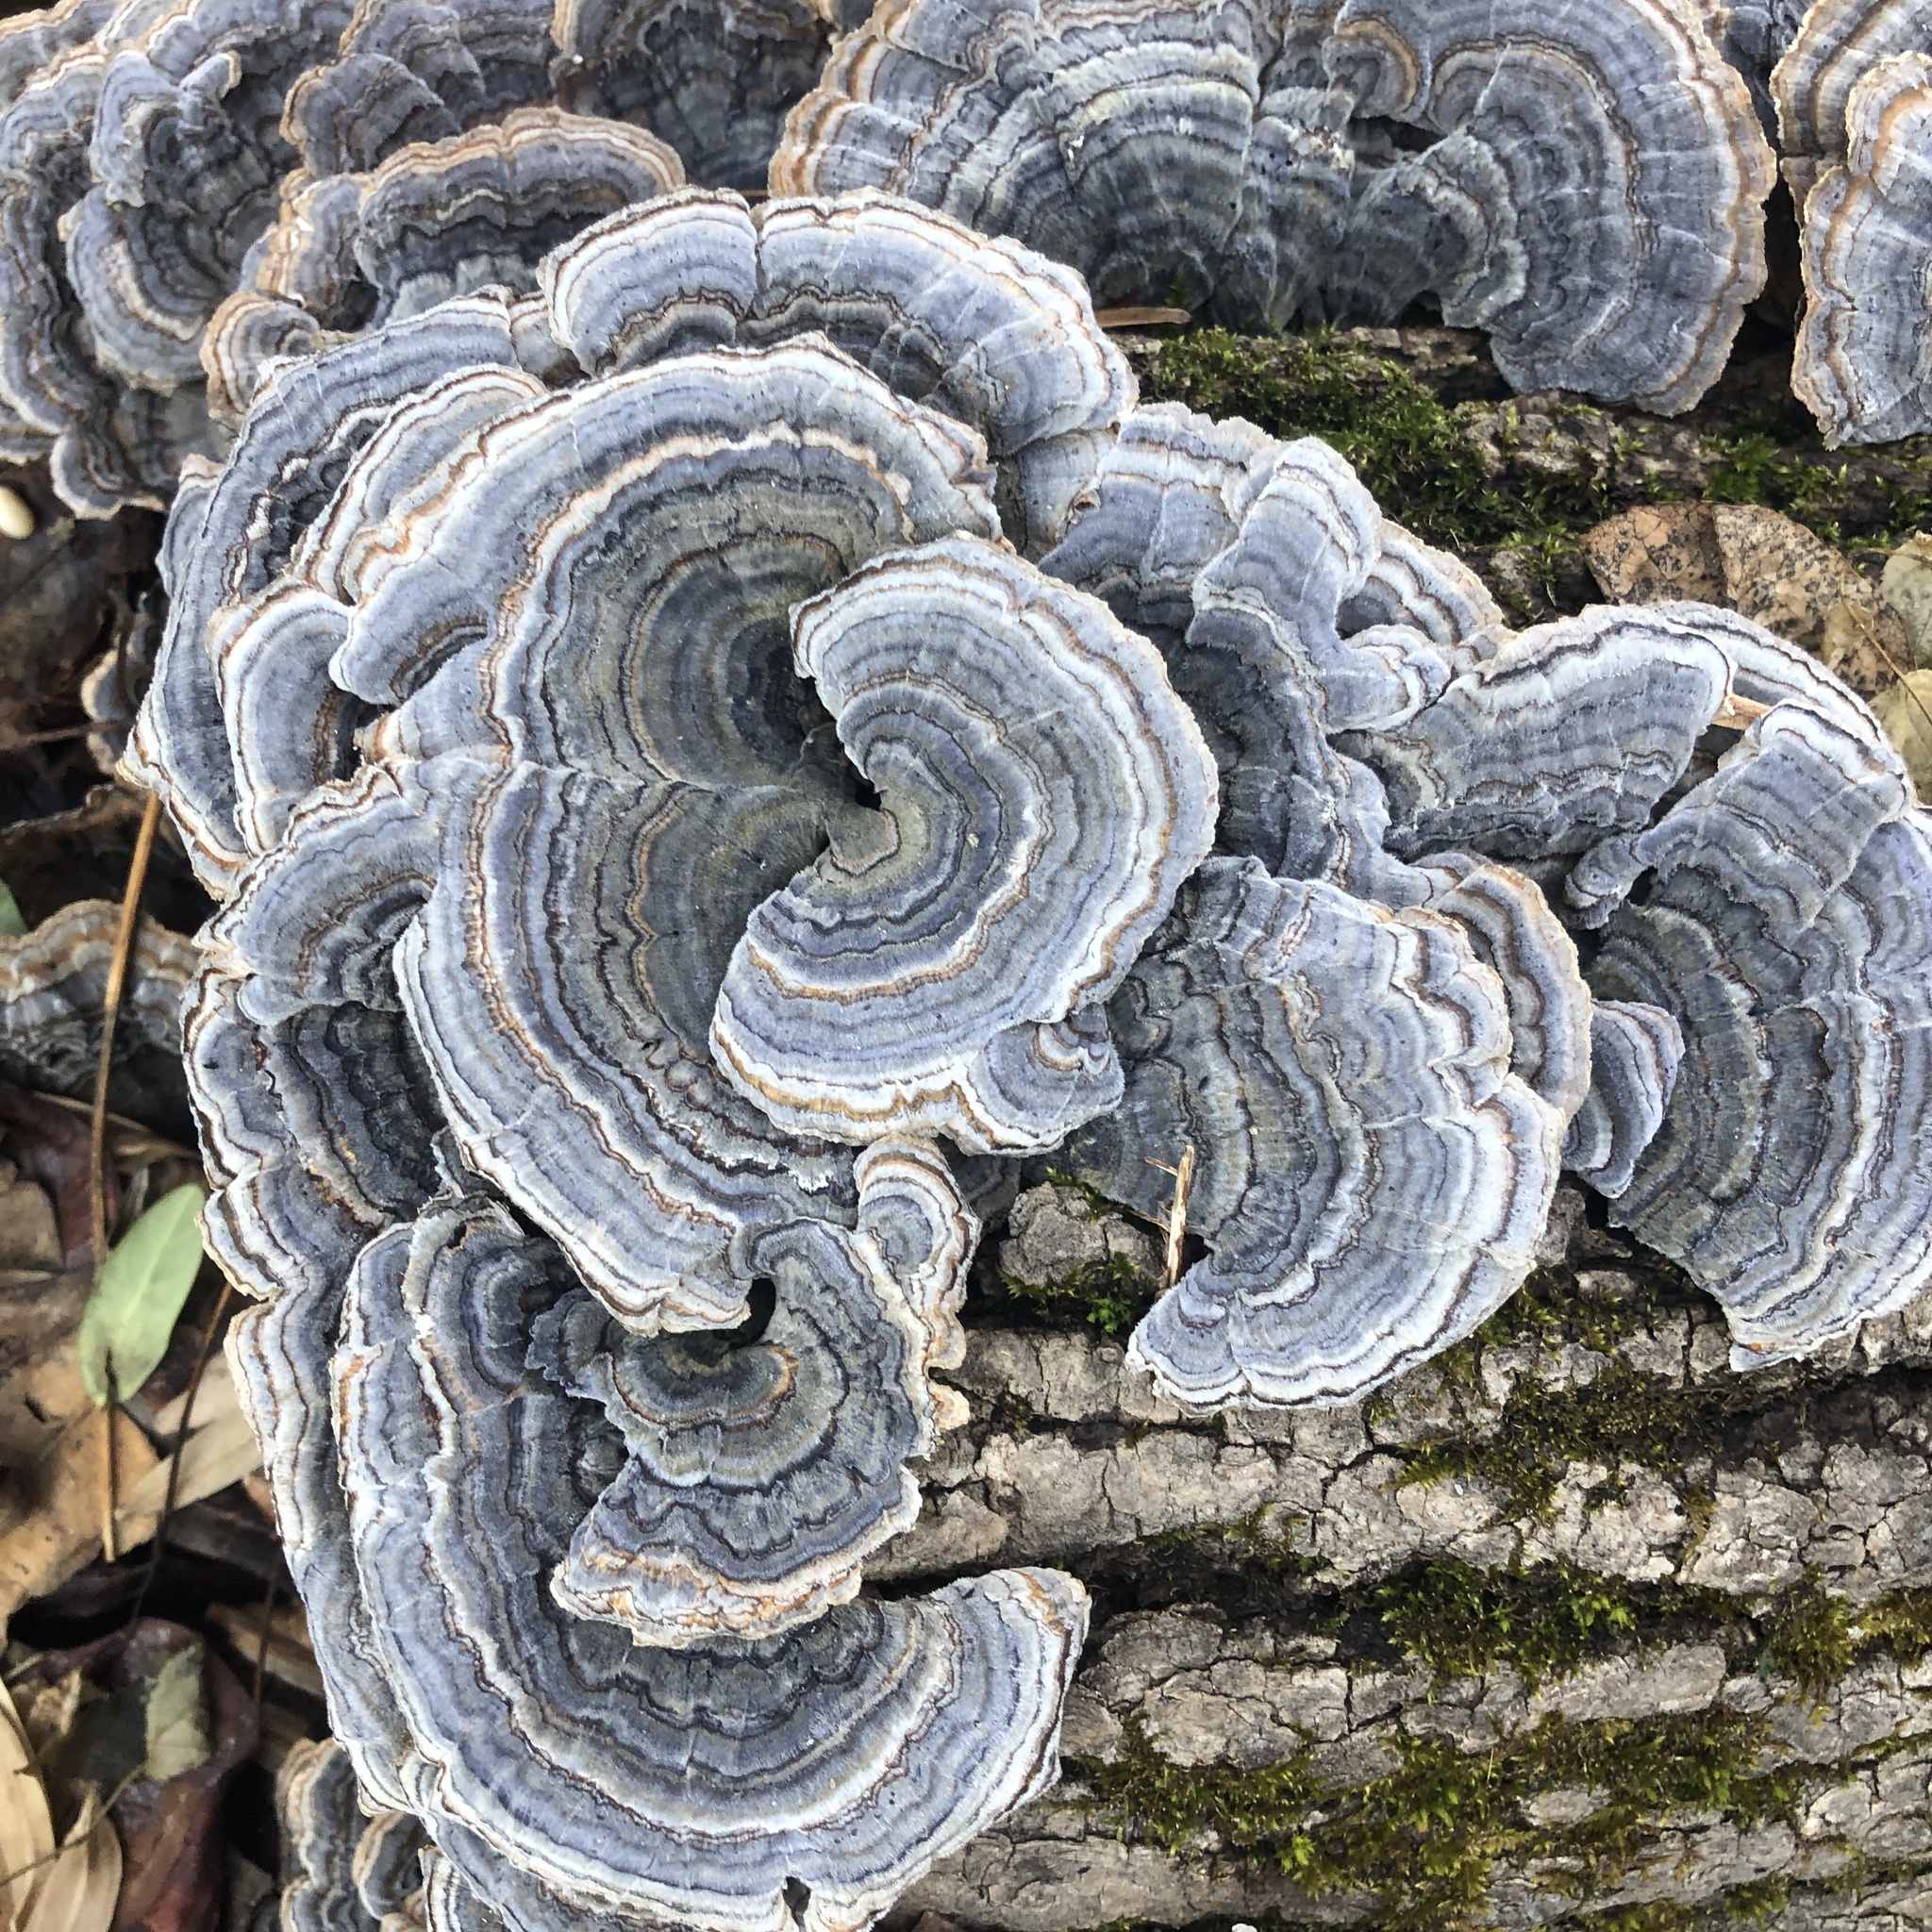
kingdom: Fungi
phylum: Basidiomycota
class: Agaricomycetes
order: Polyporales
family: Polyporaceae
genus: Trametes
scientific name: Trametes versicolor
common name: Turkeytail
